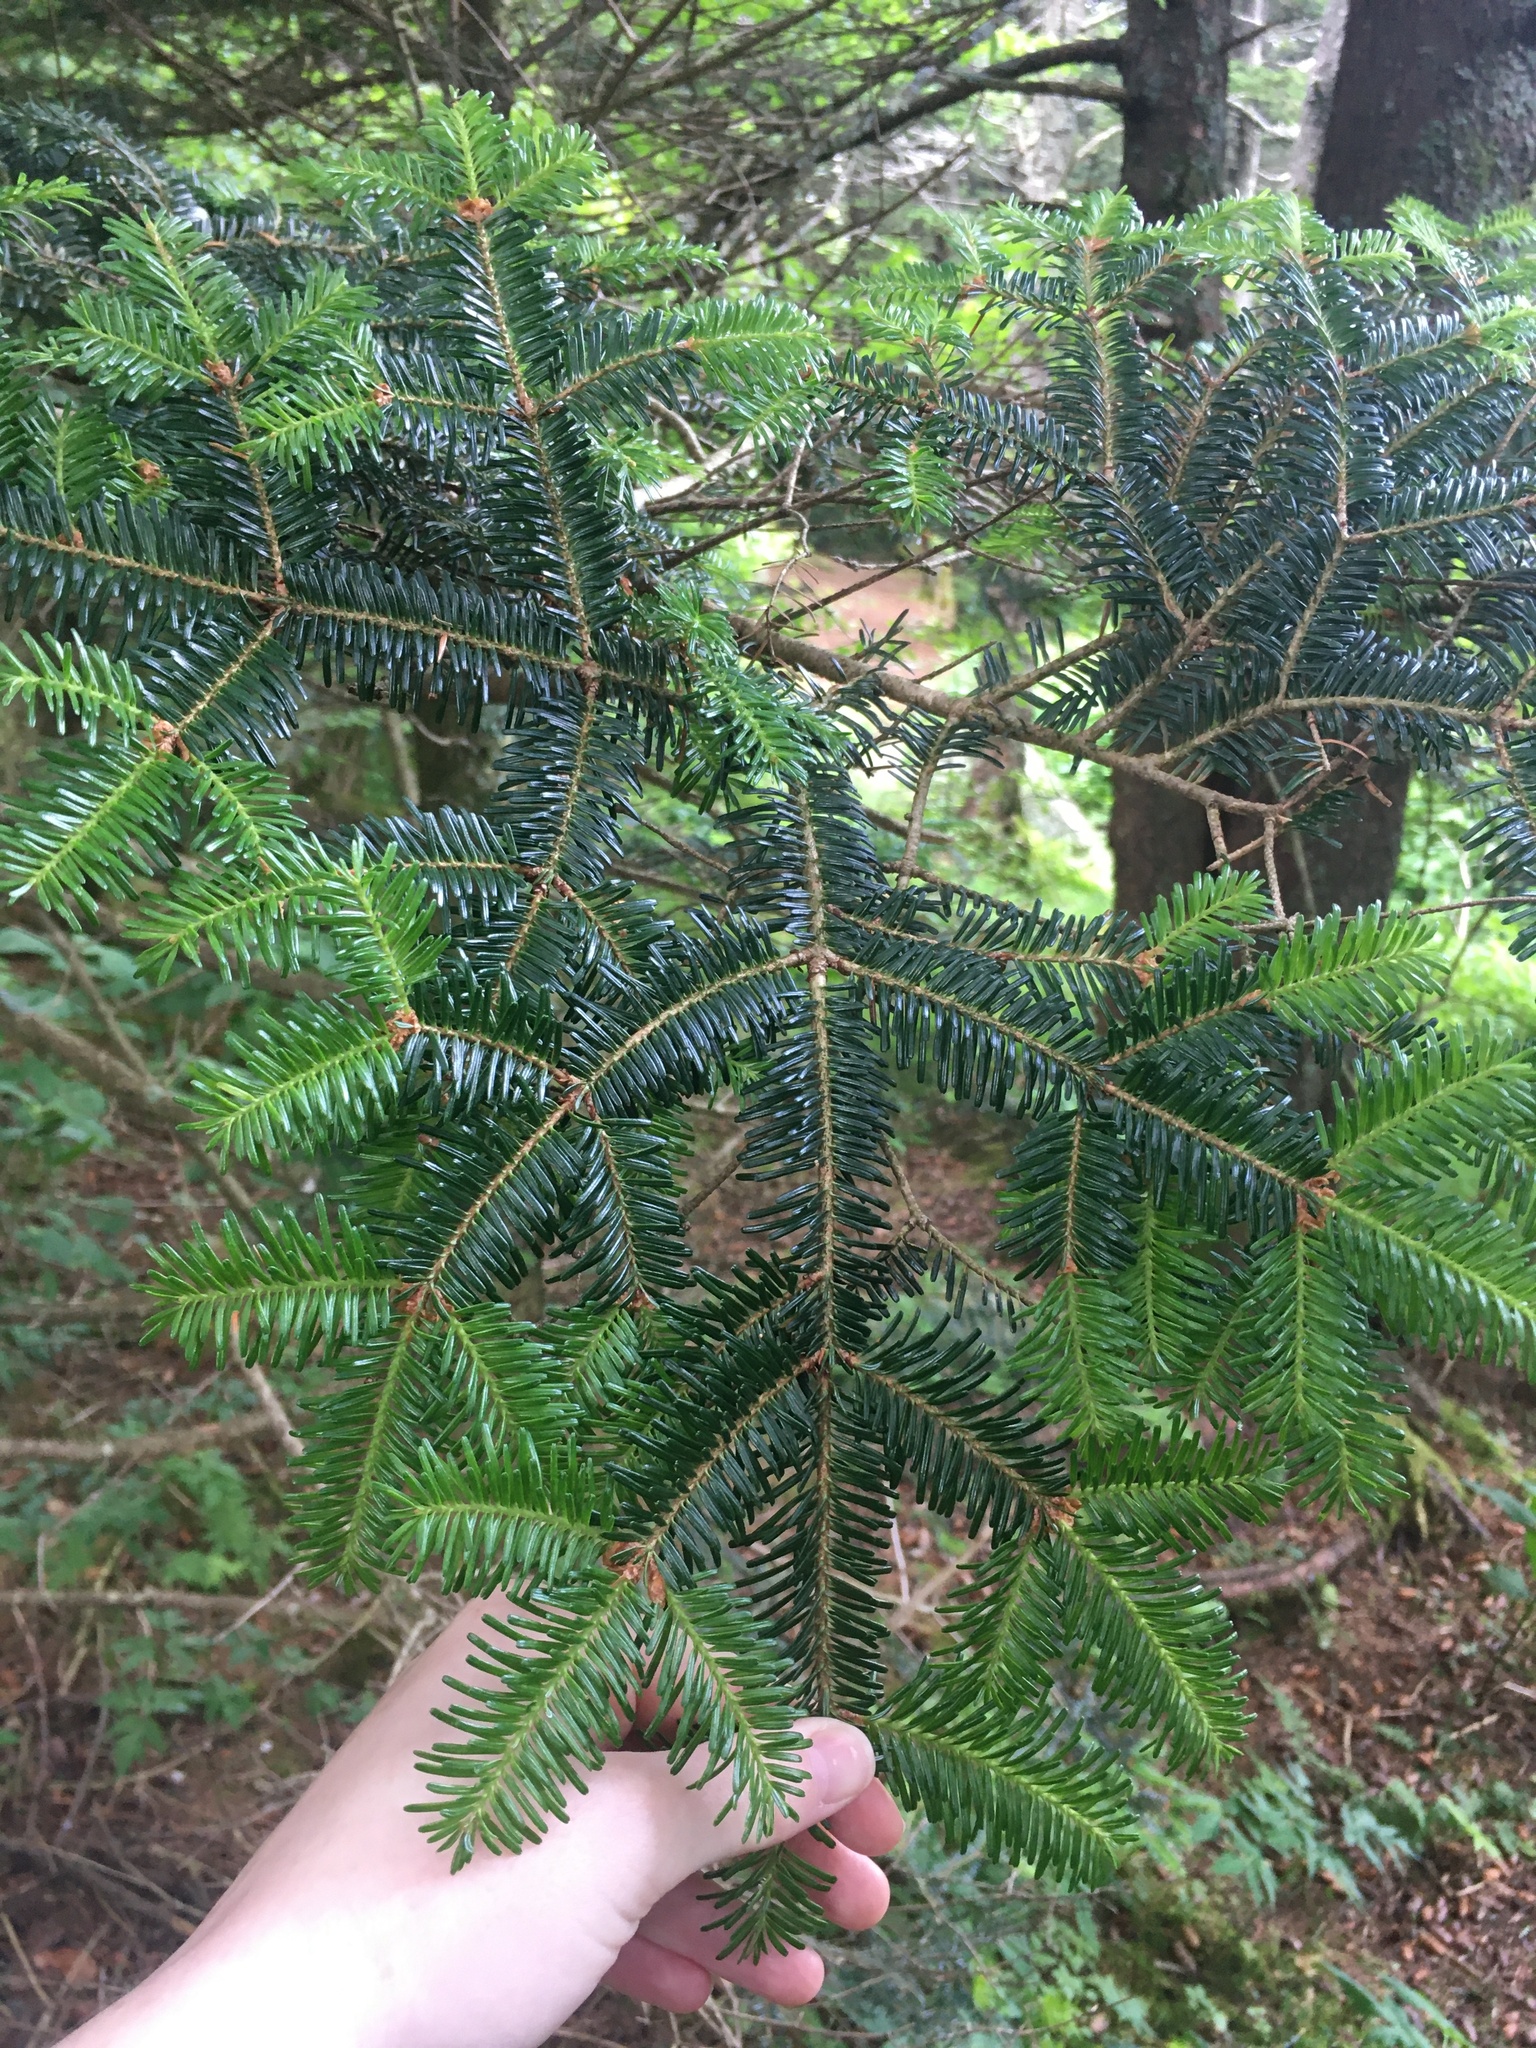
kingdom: Plantae
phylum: Tracheophyta
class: Pinopsida
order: Pinales
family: Pinaceae
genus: Abies
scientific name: Abies fraseri
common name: Fraser fir
